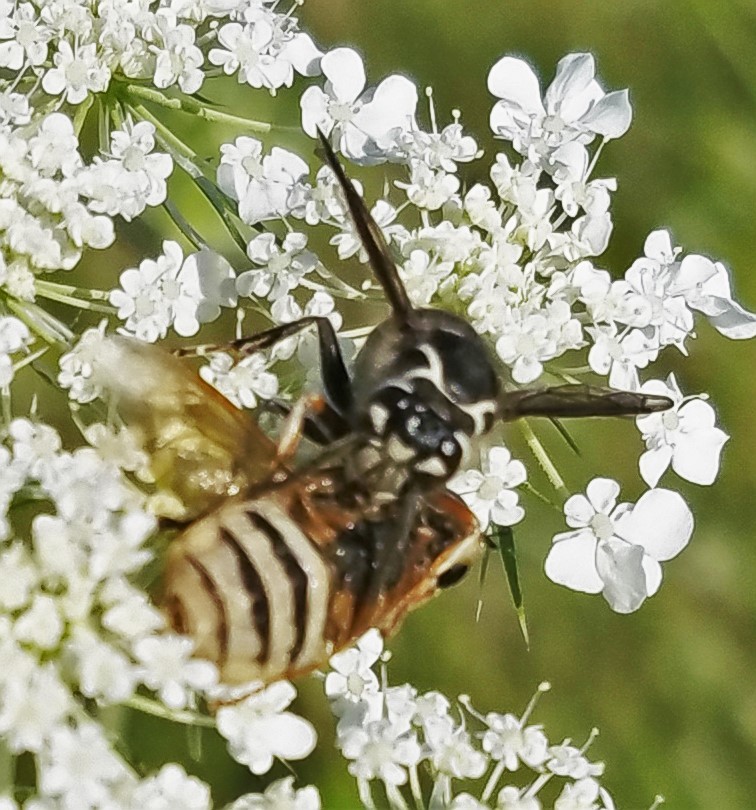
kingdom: Animalia
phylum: Arthropoda
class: Insecta
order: Hymenoptera
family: Vespidae
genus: Dolichovespula
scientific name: Dolichovespula maculata
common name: Bald-faced hornet
